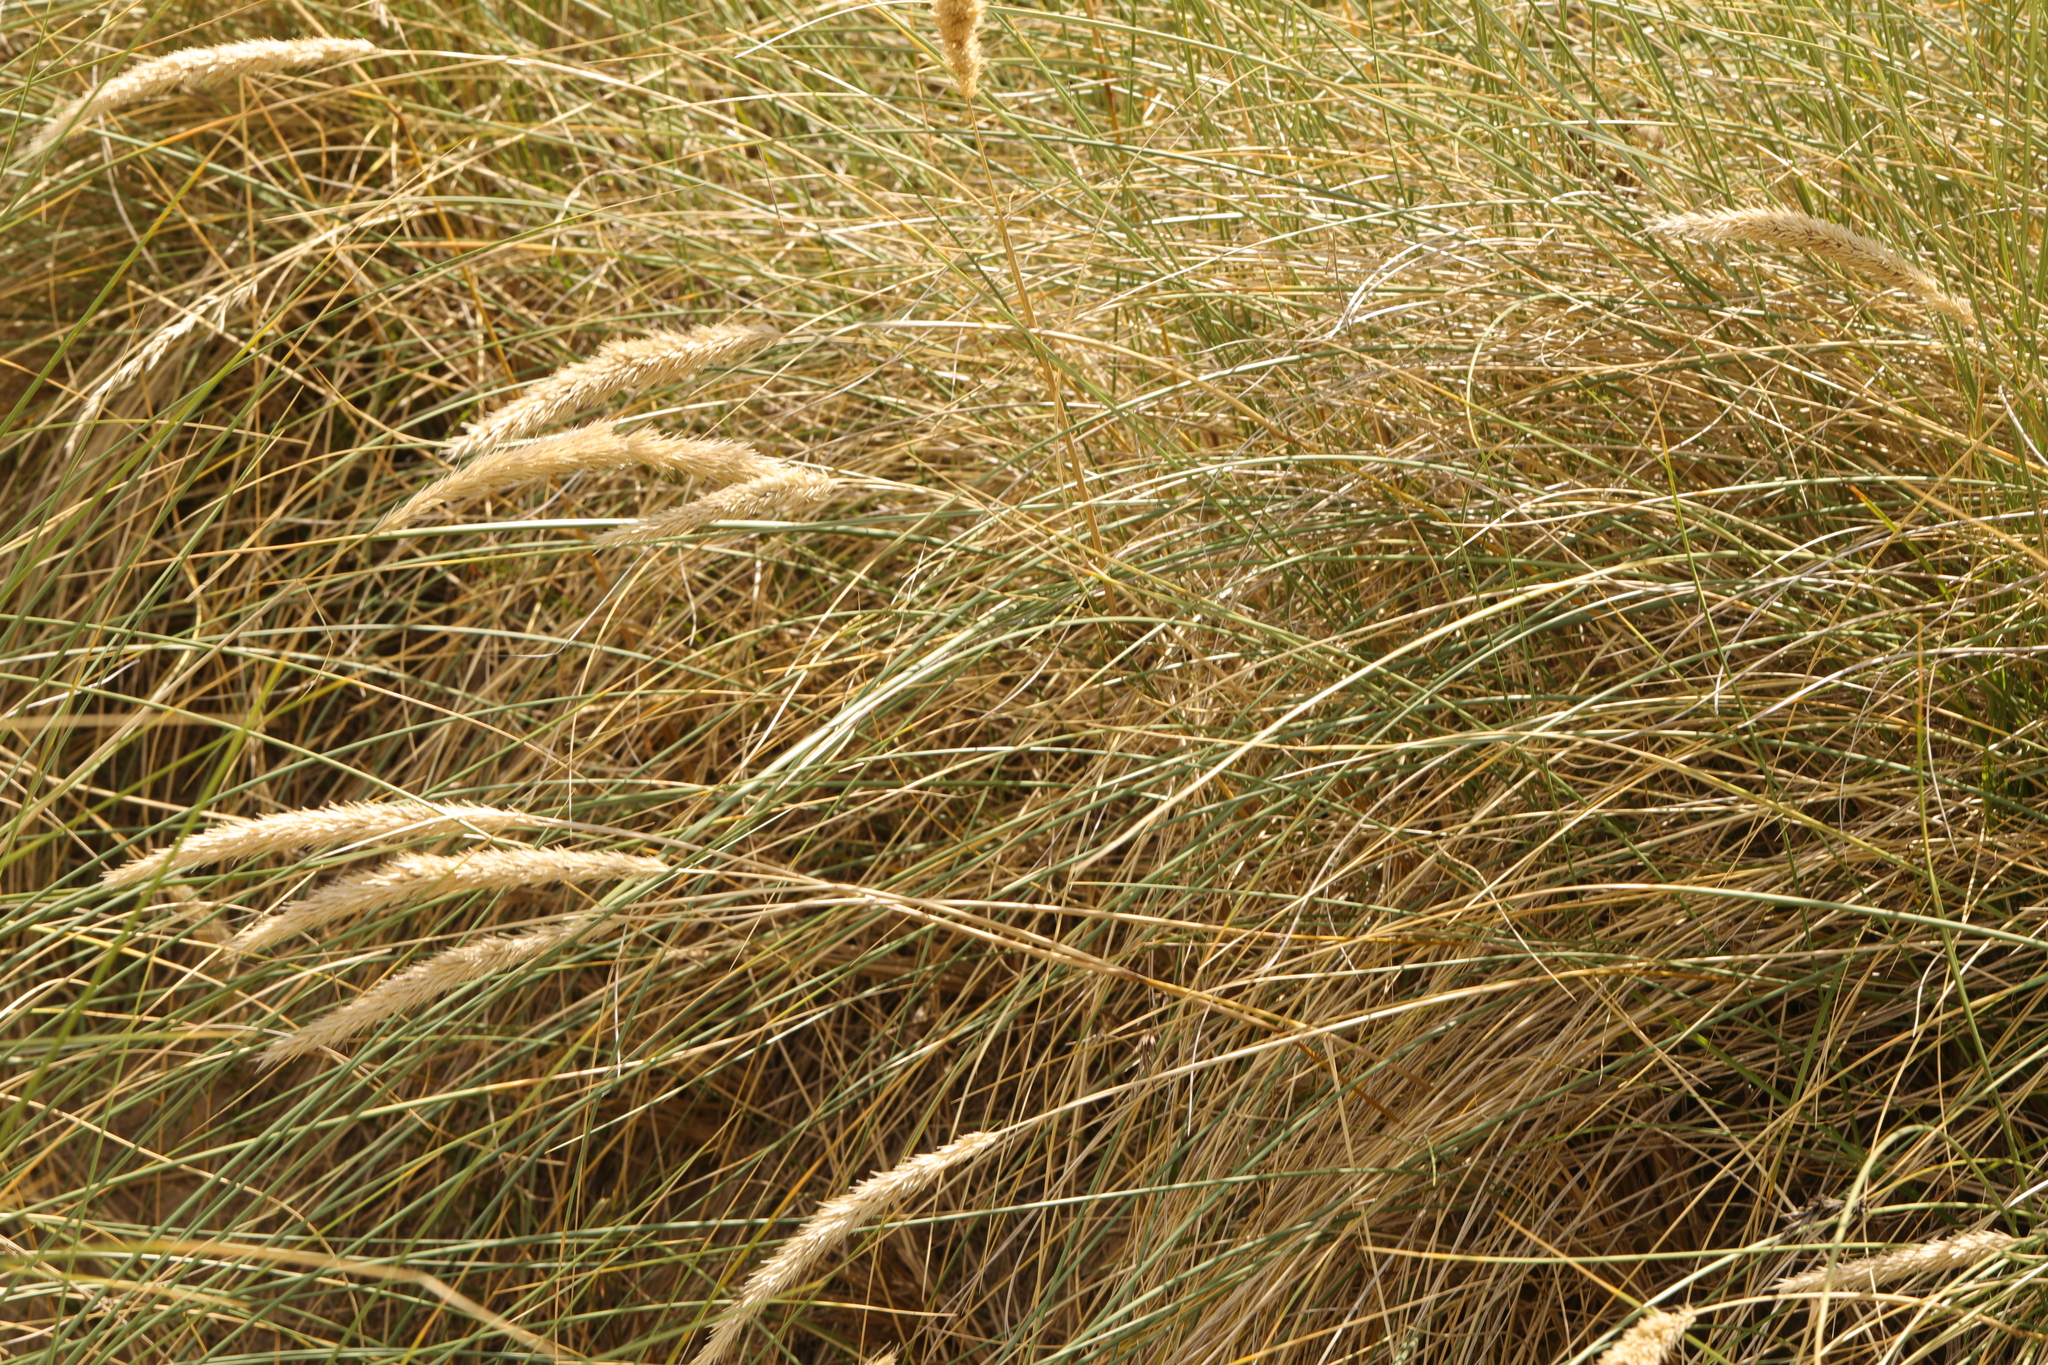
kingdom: Plantae
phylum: Tracheophyta
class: Liliopsida
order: Poales
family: Poaceae
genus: Calamagrostis
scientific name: Calamagrostis arenaria
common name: European beachgrass
